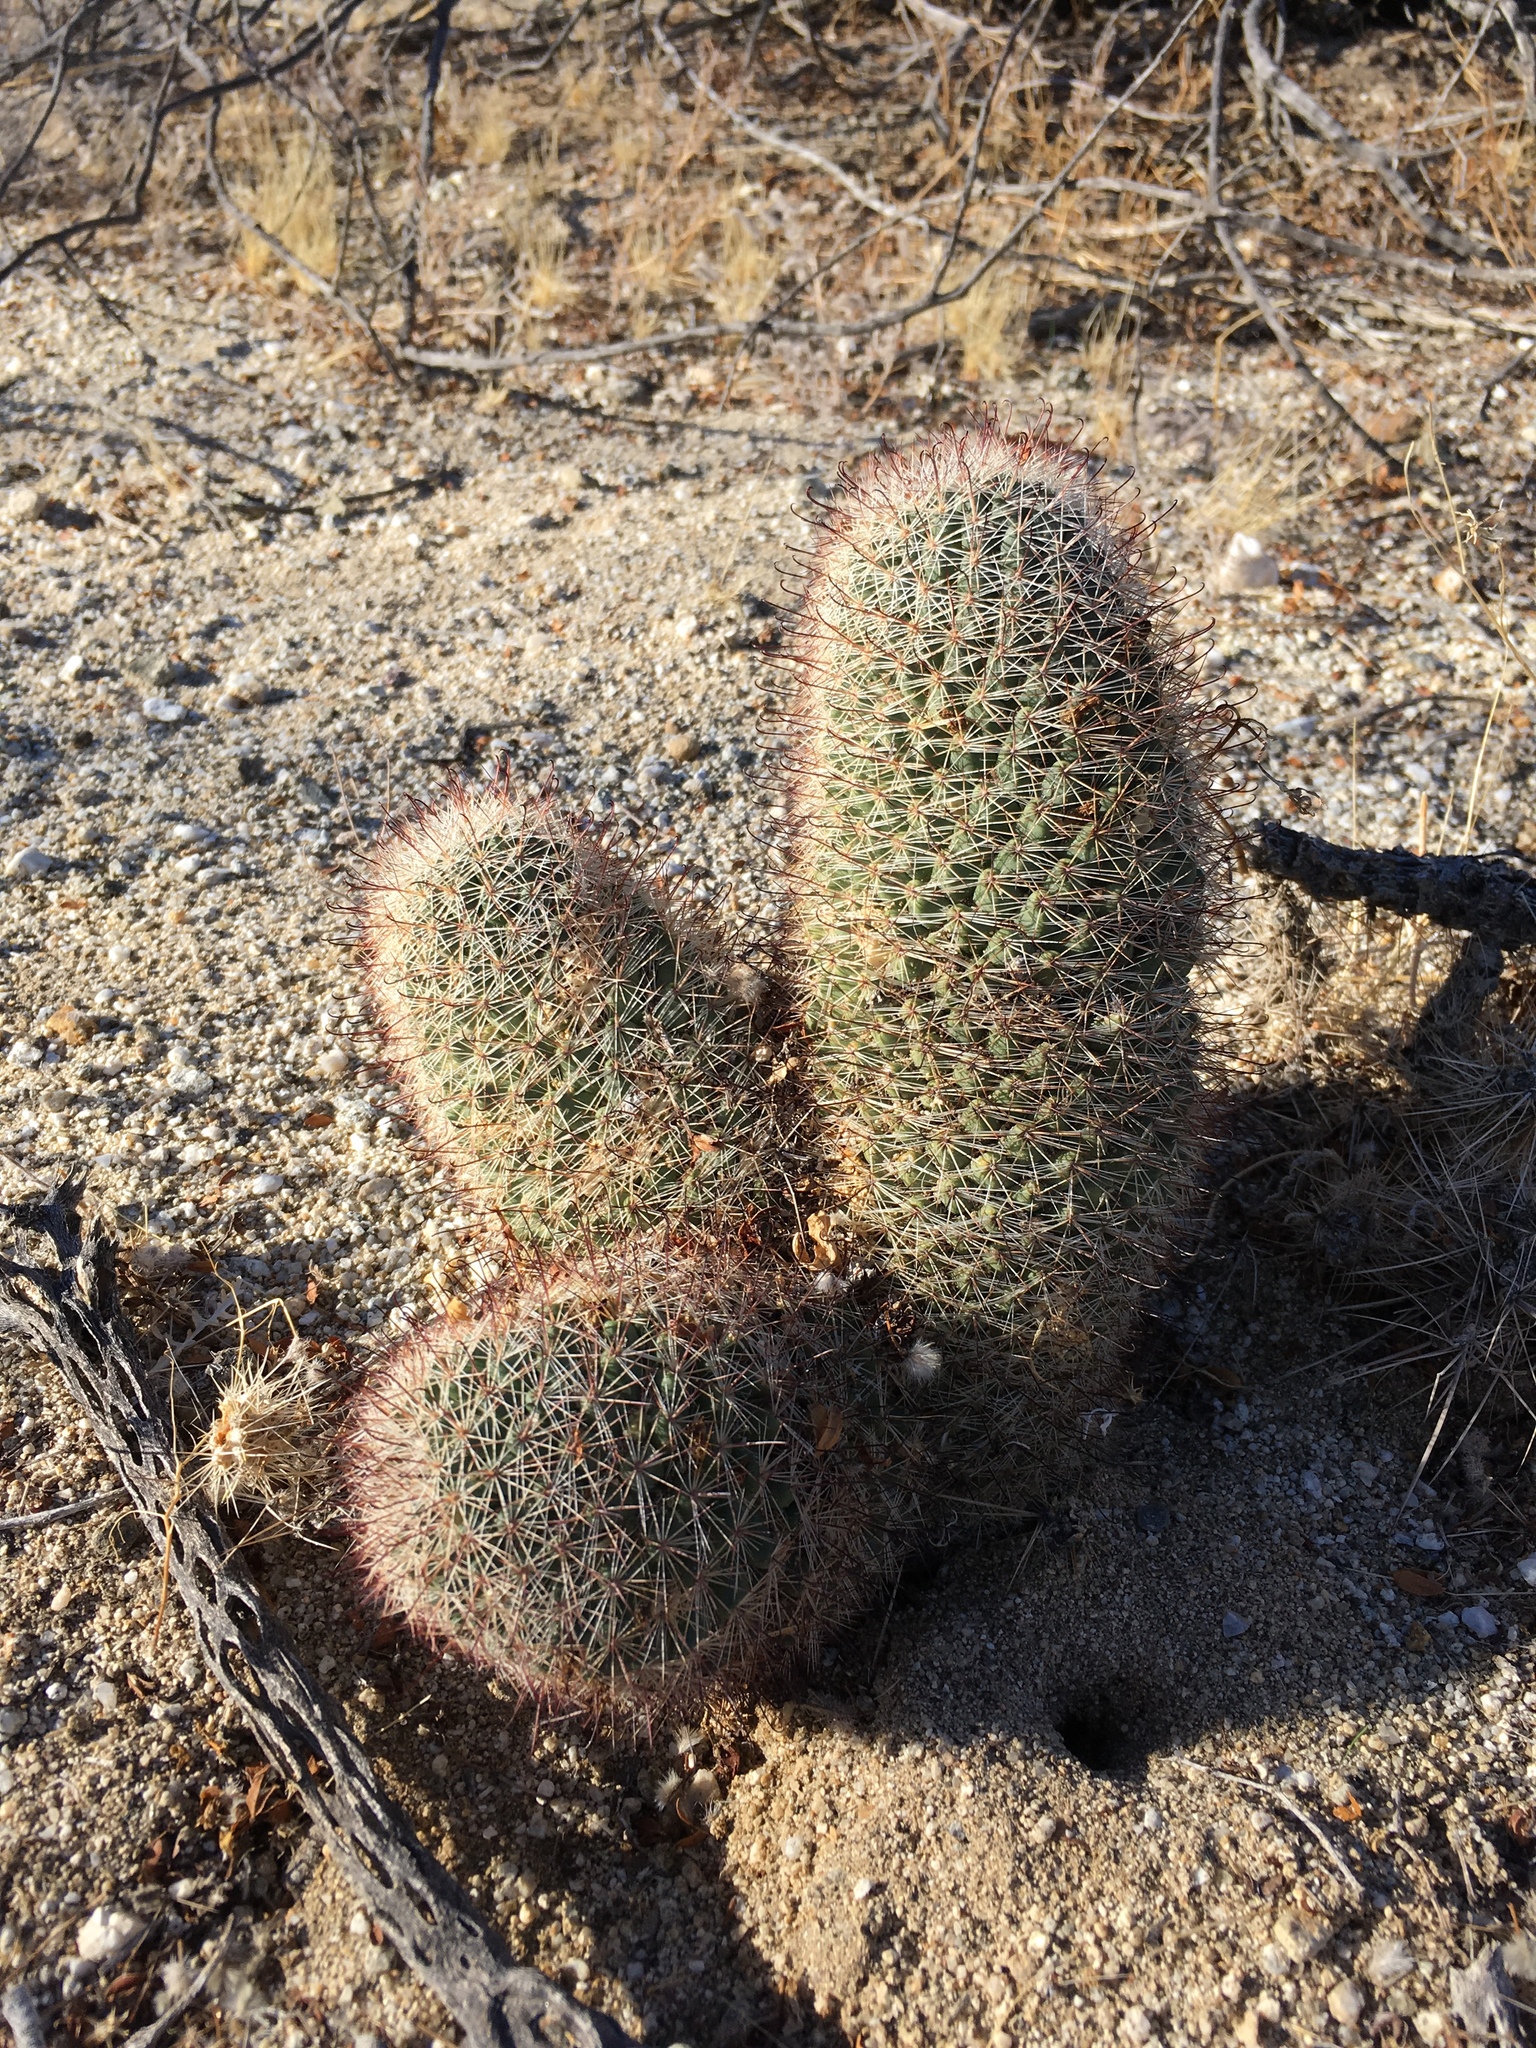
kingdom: Plantae
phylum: Tracheophyta
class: Magnoliopsida
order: Caryophyllales
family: Cactaceae
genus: Cochemiea
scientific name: Cochemiea dioica
